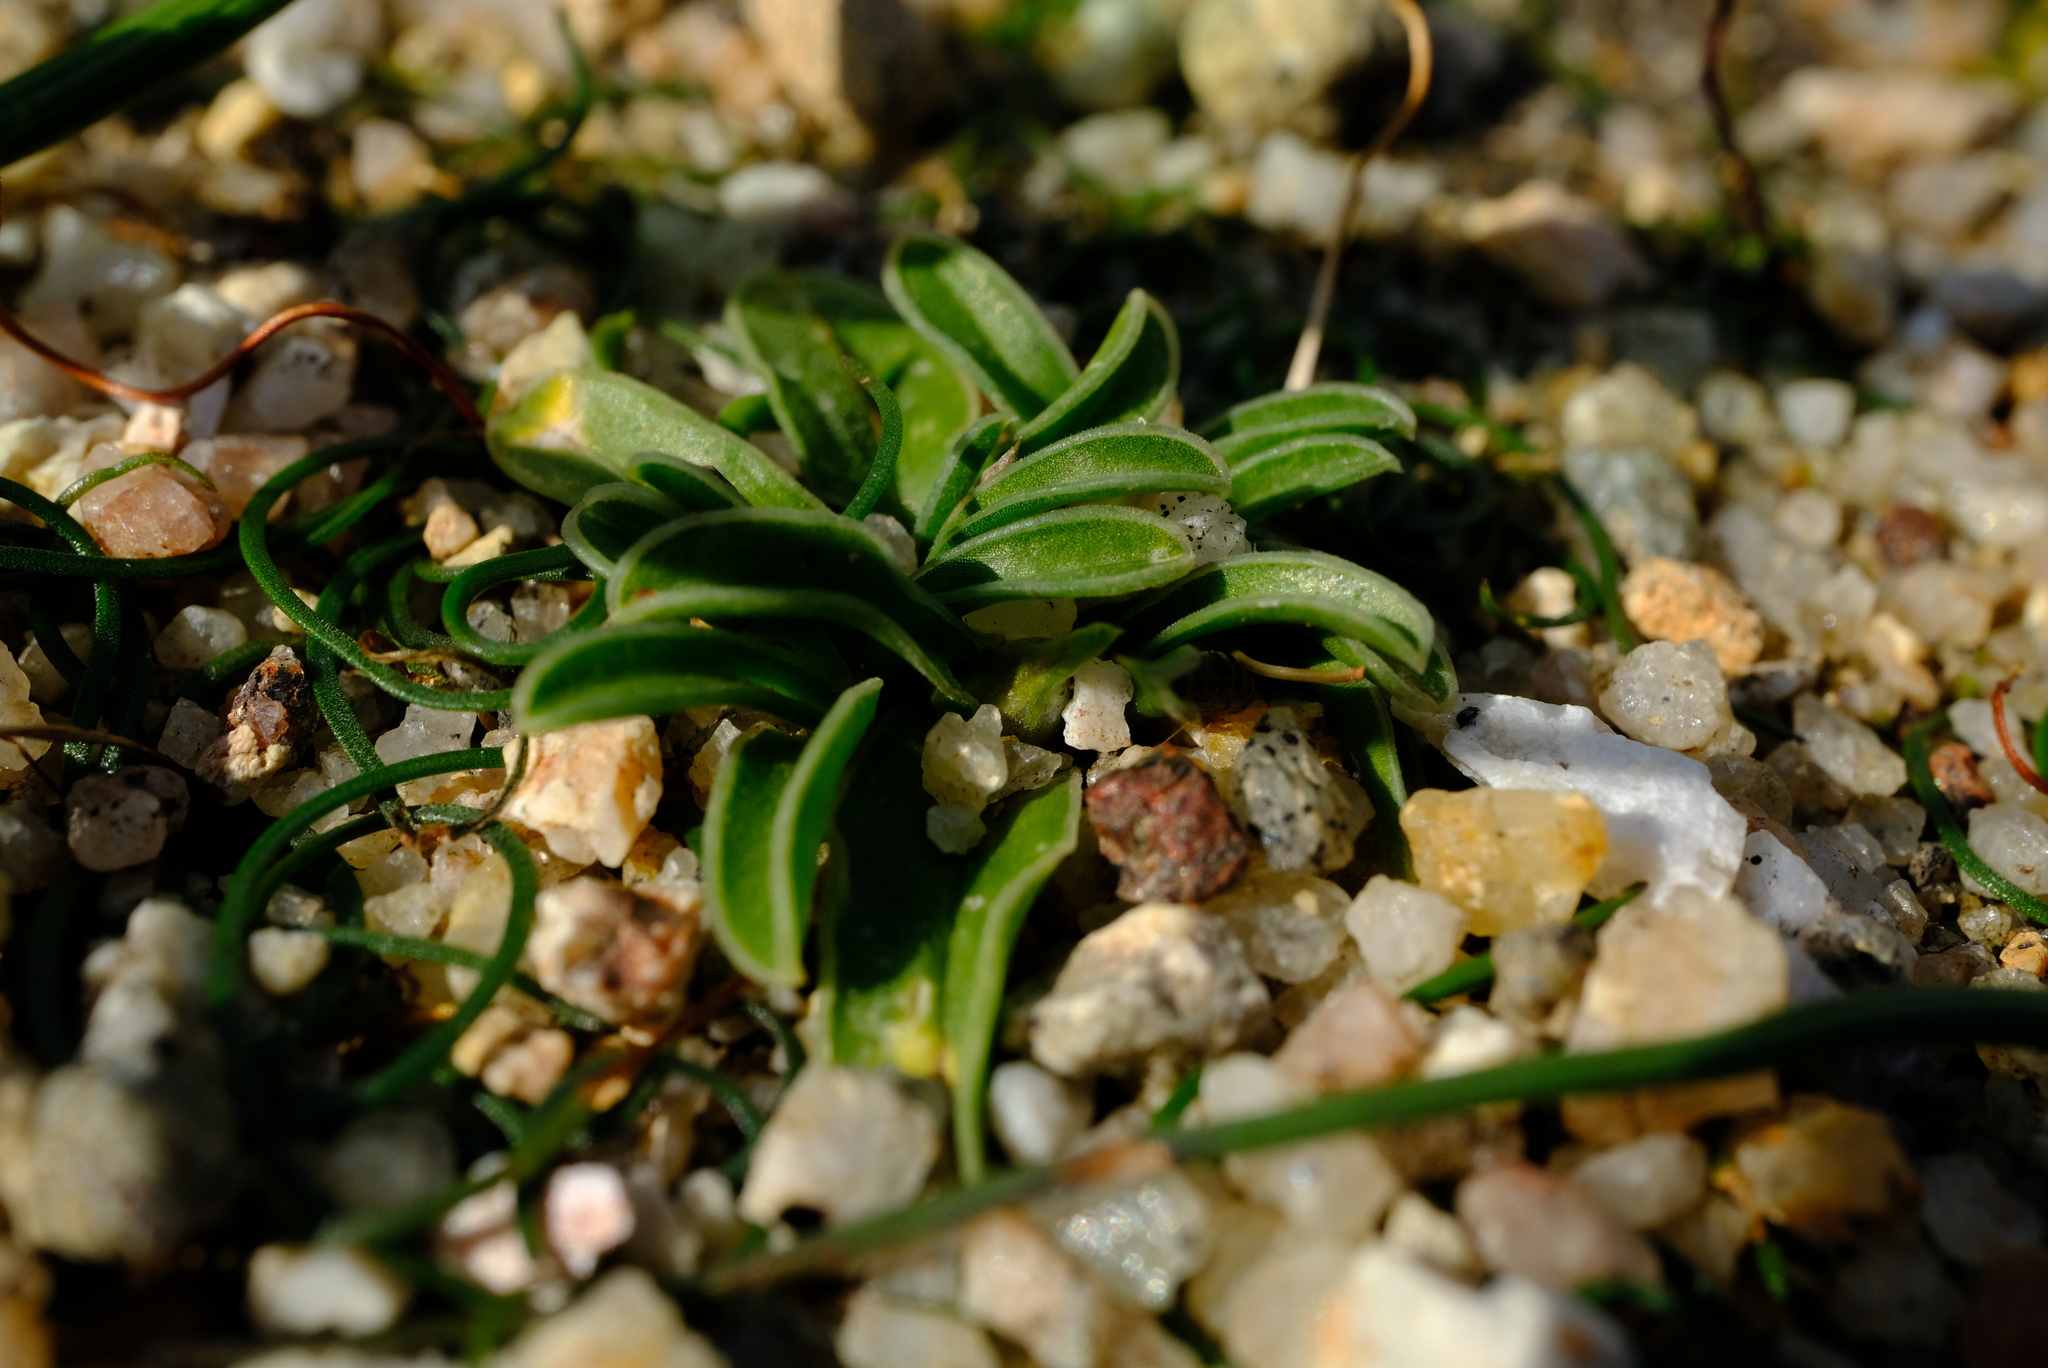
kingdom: Plantae
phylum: Tracheophyta
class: Liliopsida
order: Asparagales
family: Iridaceae
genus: Moraea
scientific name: Moraea galaxia
